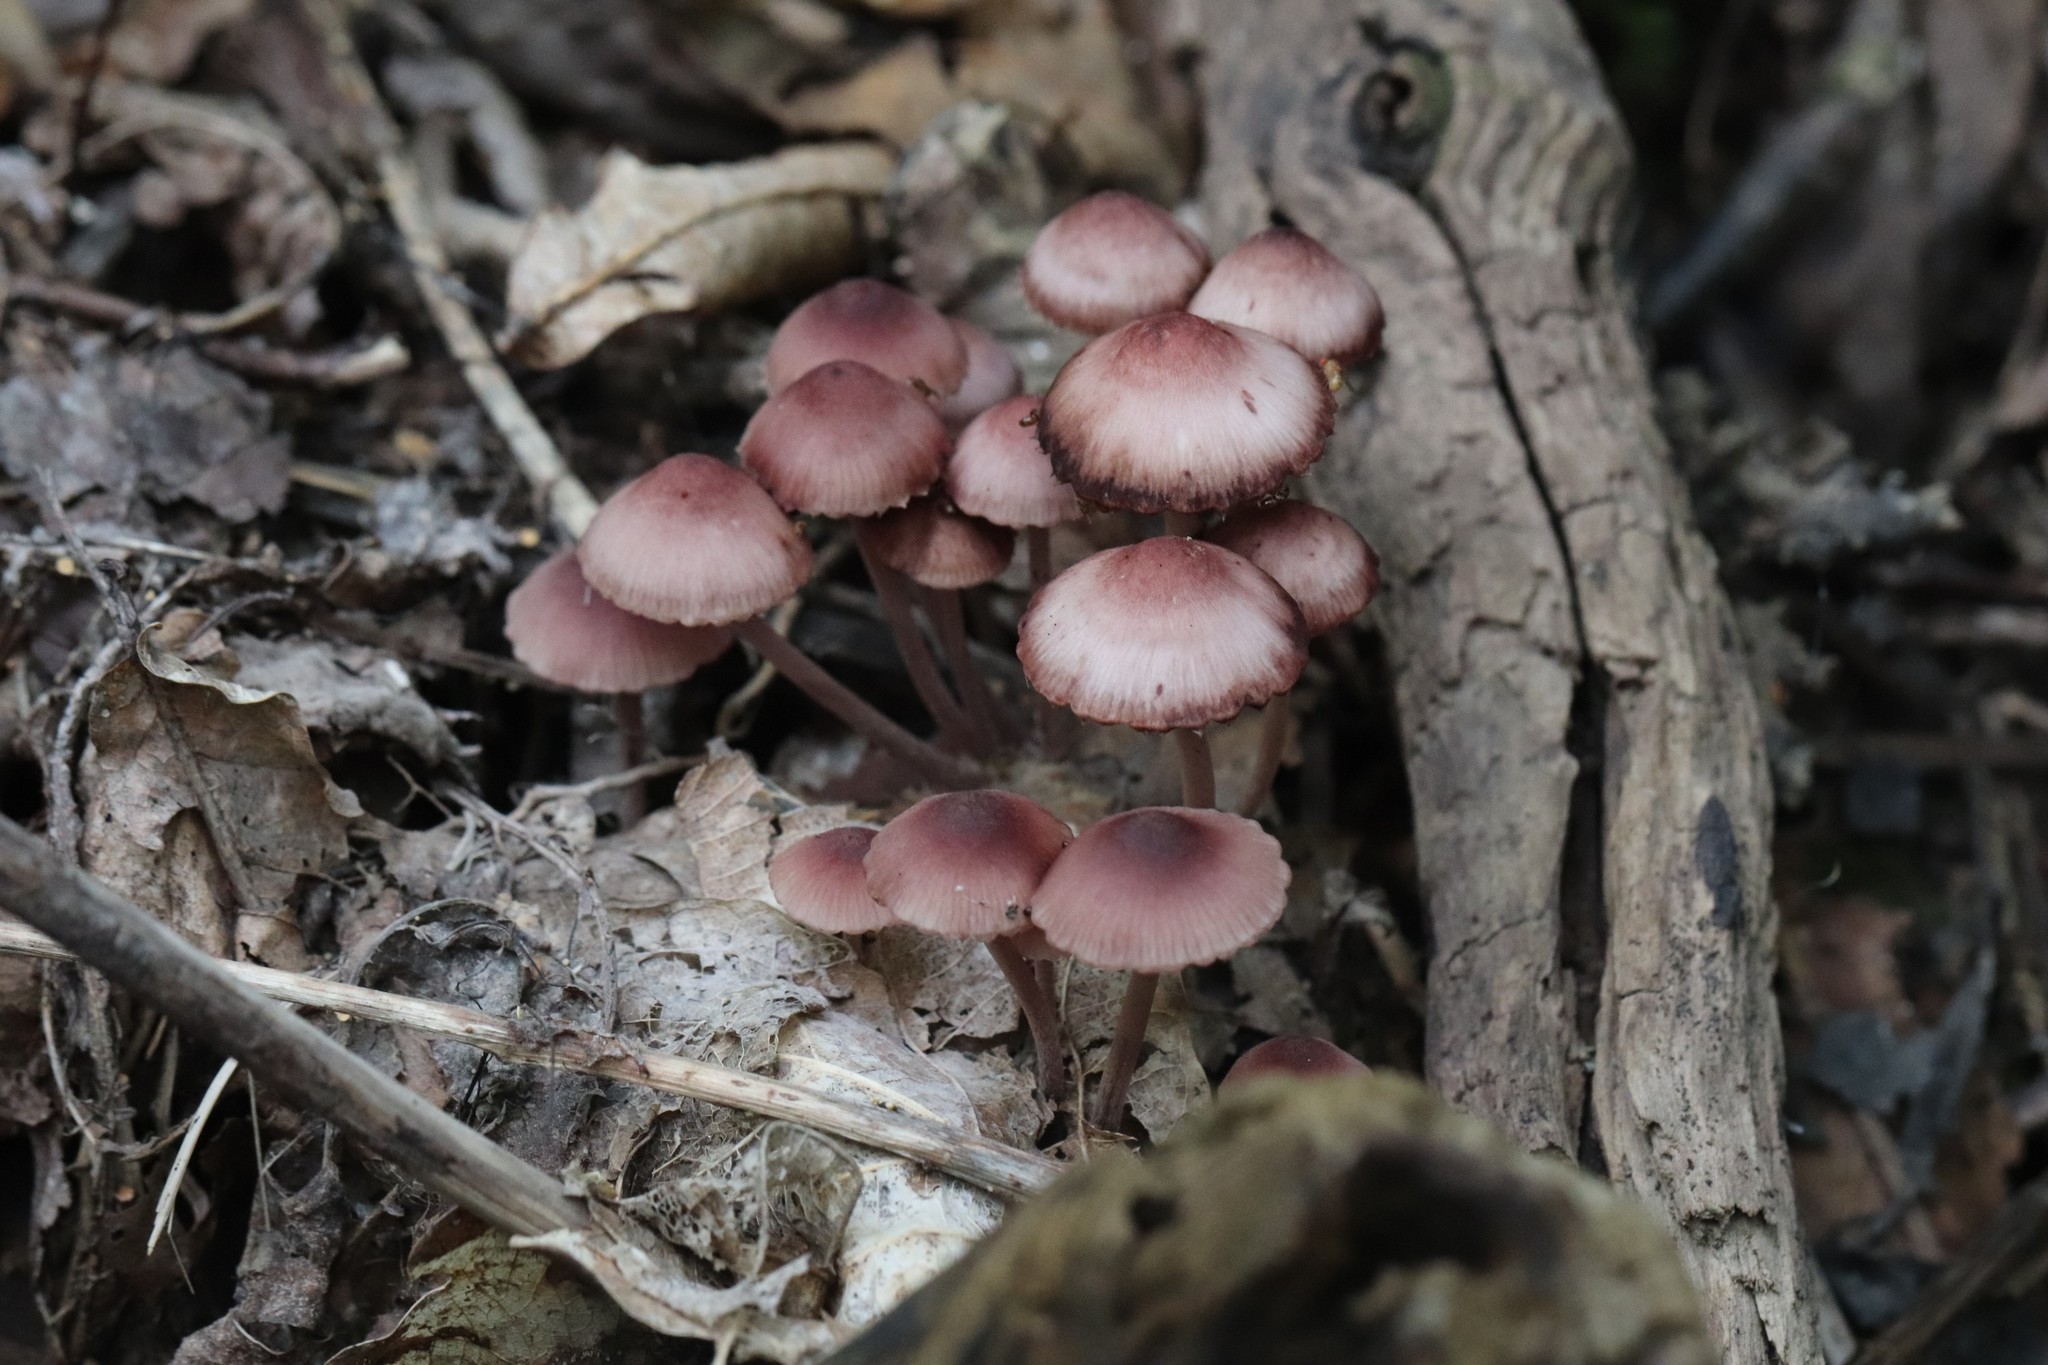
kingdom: Fungi
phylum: Basidiomycota
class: Agaricomycetes
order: Agaricales
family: Mycenaceae
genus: Mycena
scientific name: Mycena haematopus
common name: Burgundydrop bonnet
